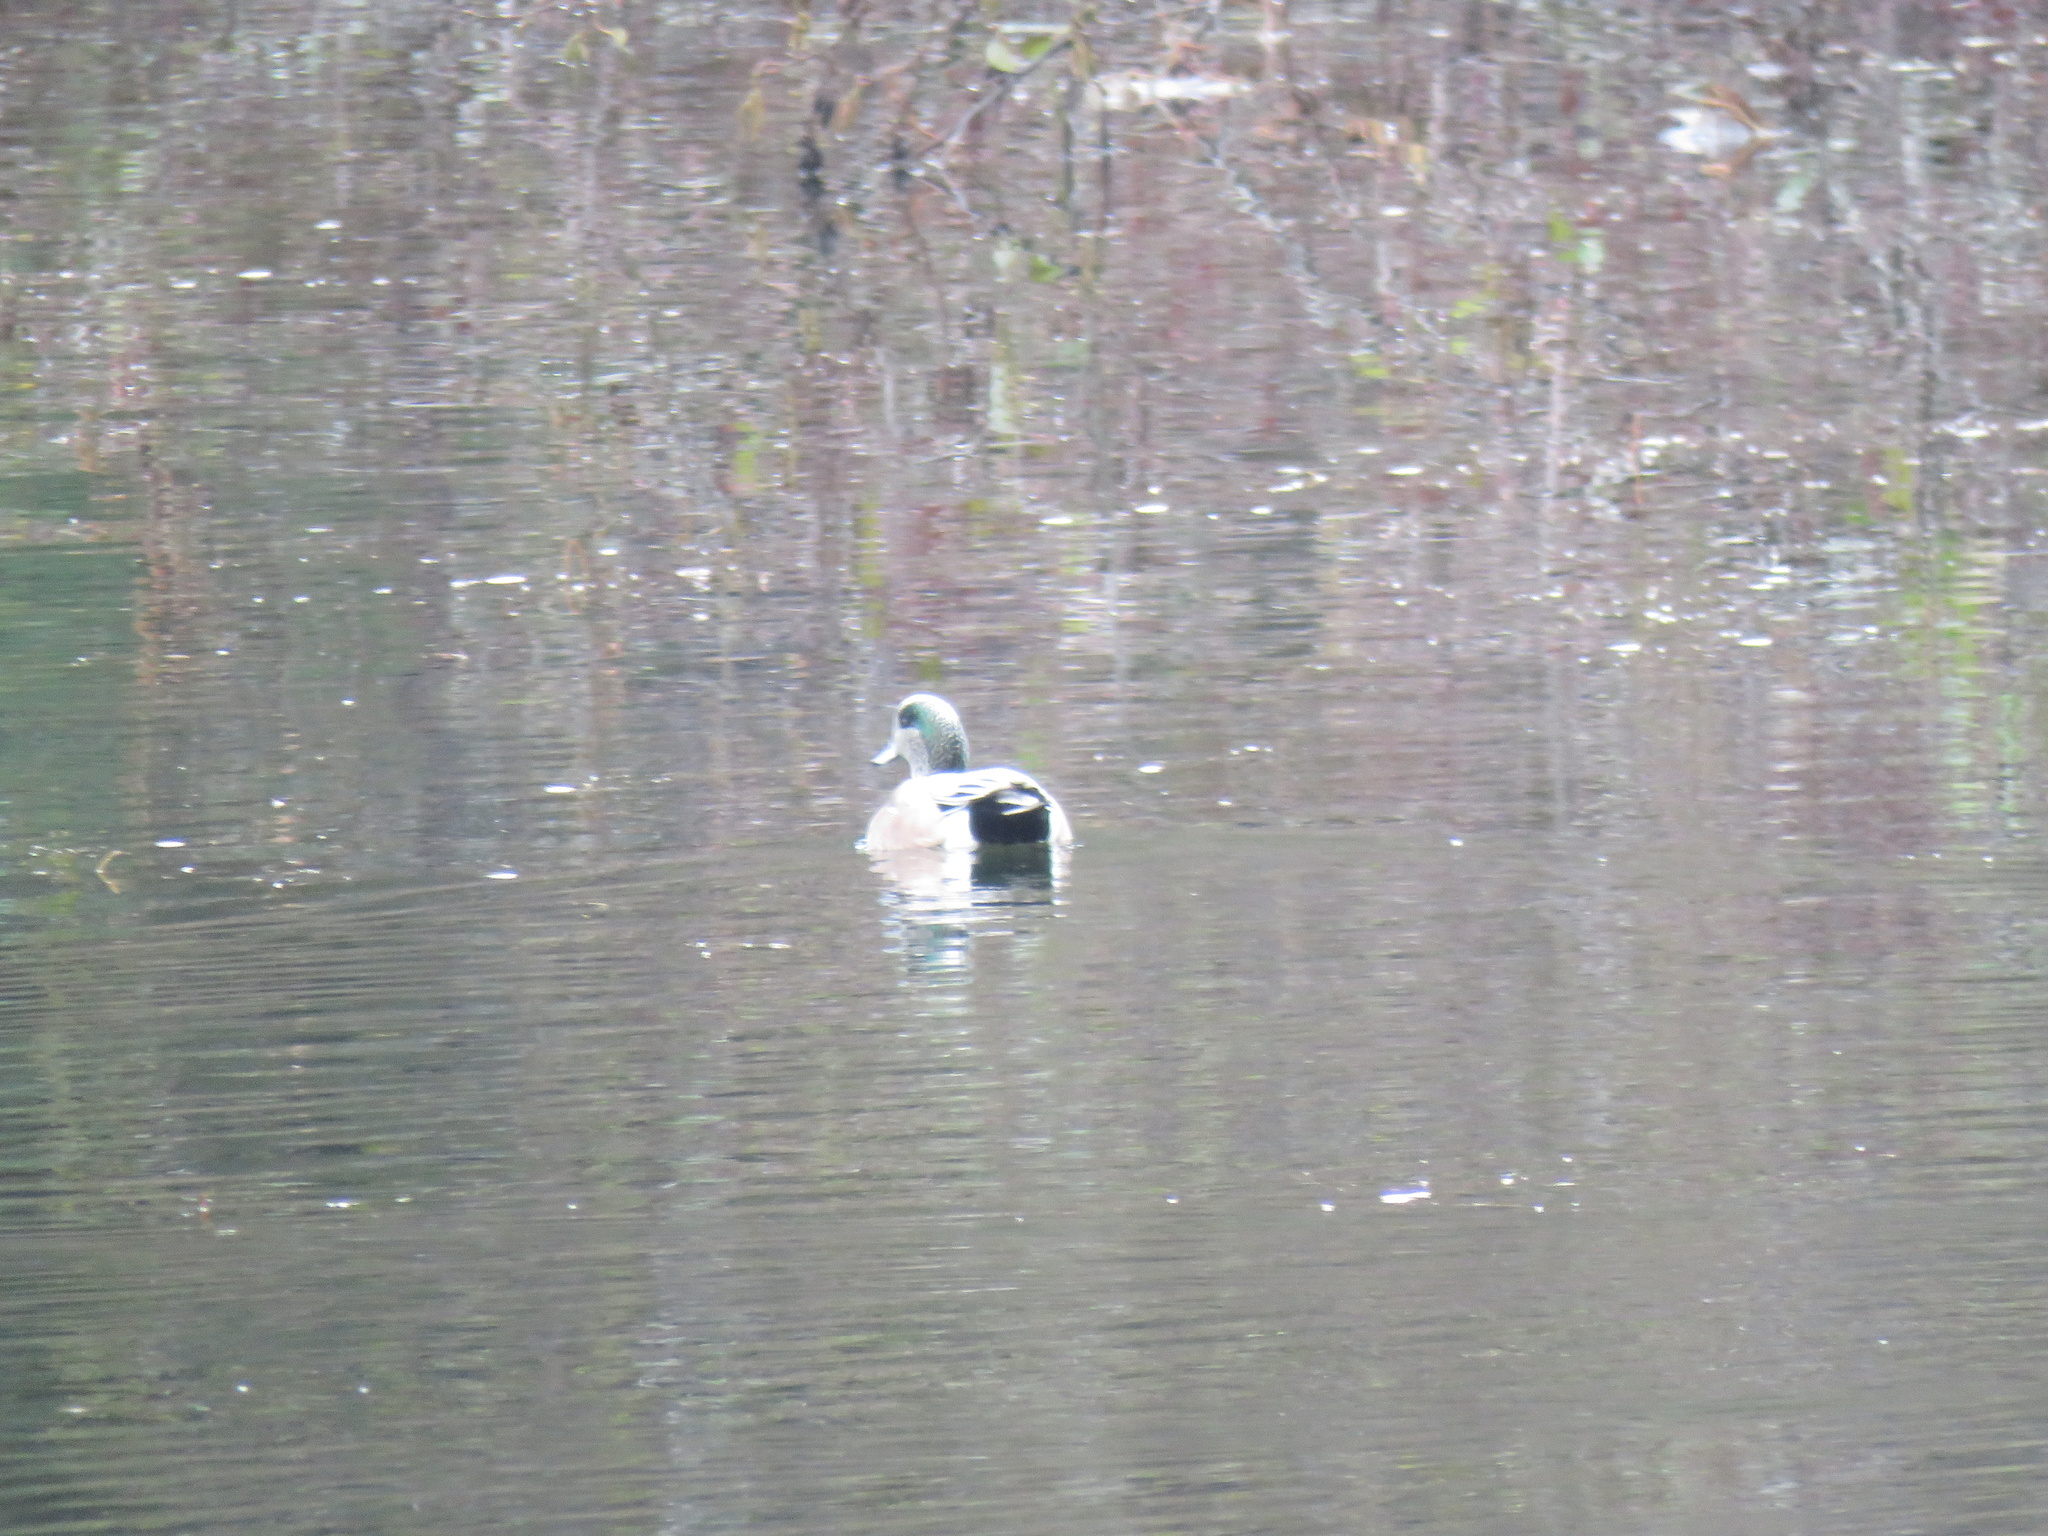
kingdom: Animalia
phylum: Chordata
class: Aves
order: Anseriformes
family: Anatidae
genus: Mareca
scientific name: Mareca americana
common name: American wigeon
